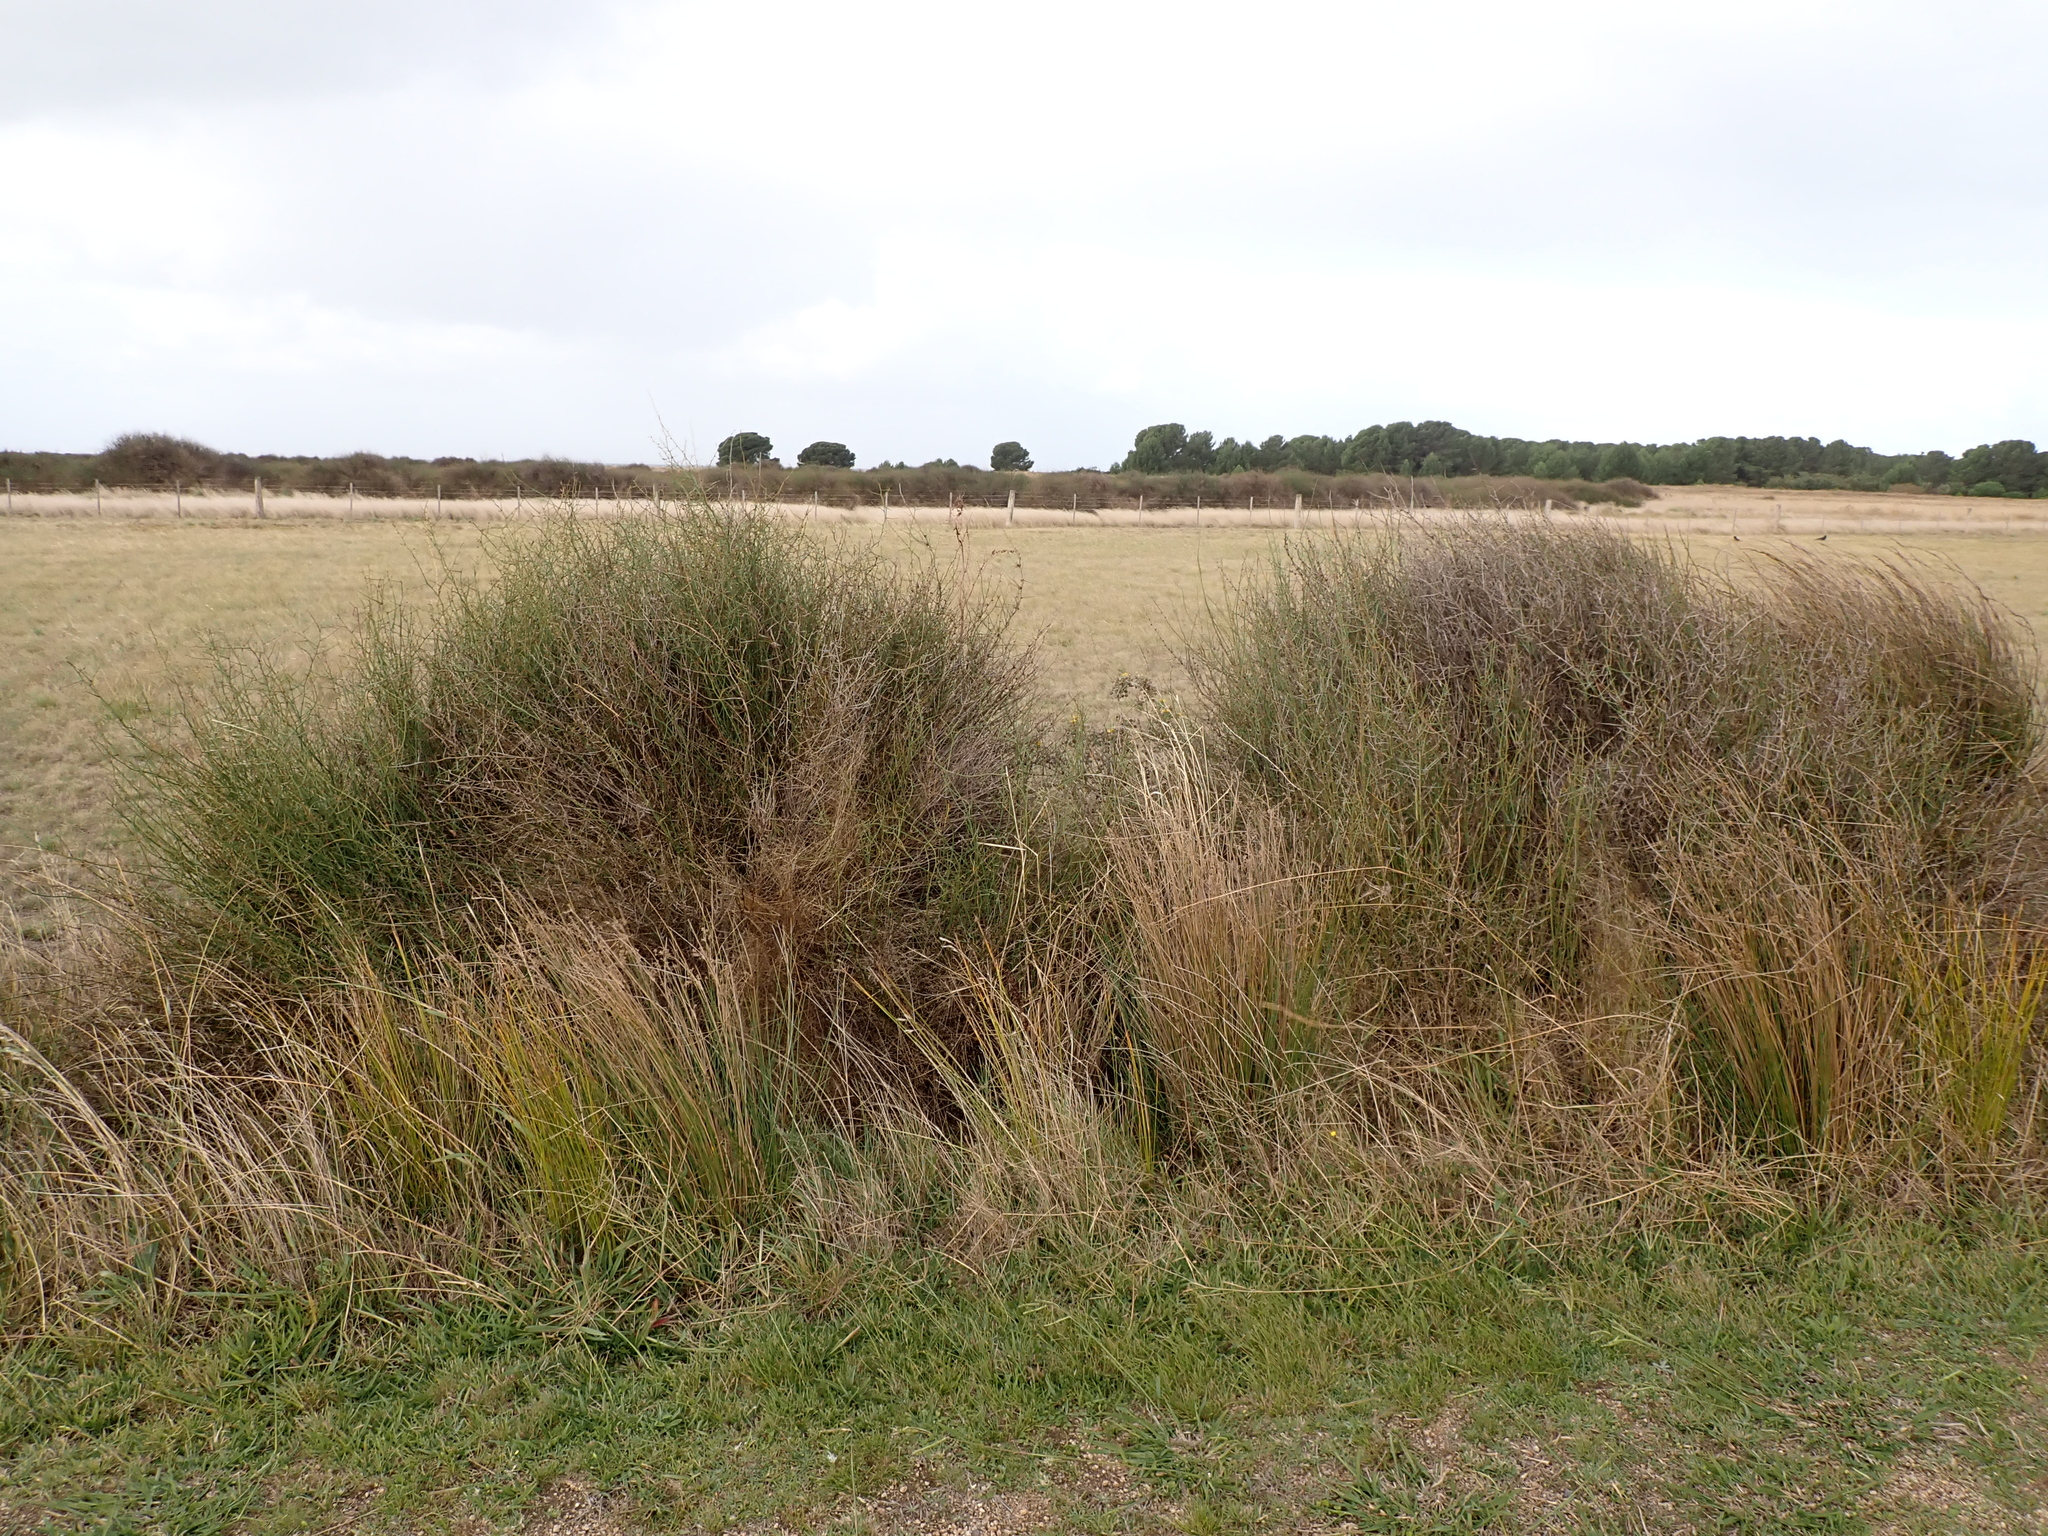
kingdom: Plantae
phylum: Tracheophyta
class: Magnoliopsida
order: Caryophyllales
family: Polygonaceae
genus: Duma
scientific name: Duma florulenta
